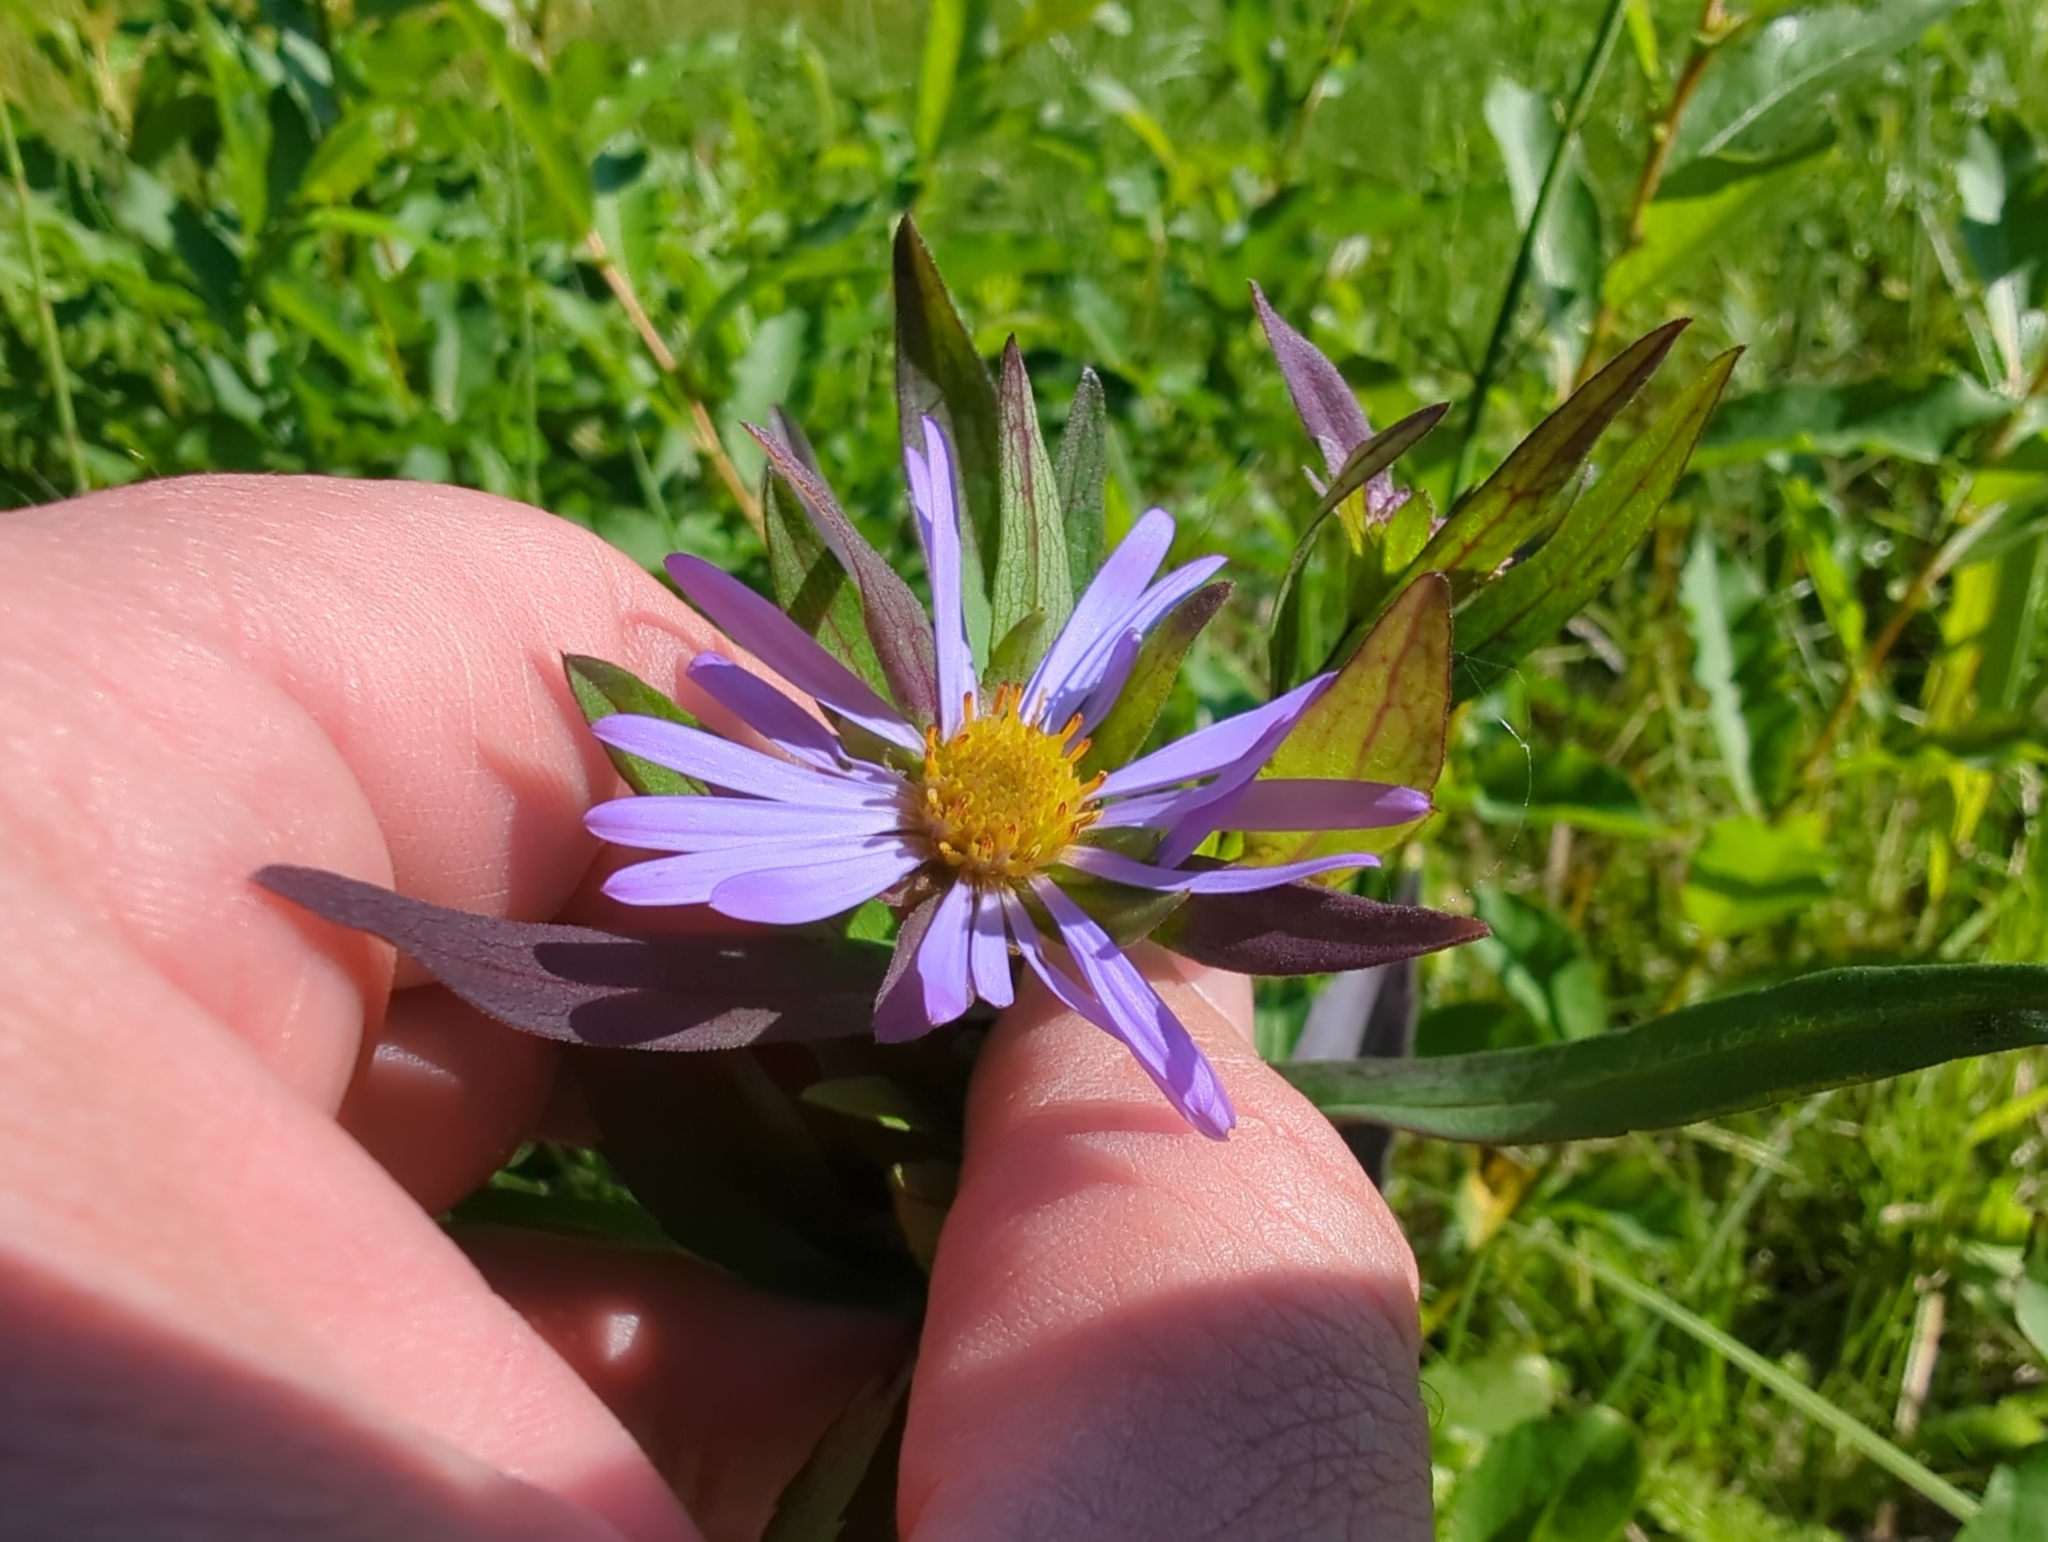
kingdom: Plantae
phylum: Tracheophyta
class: Magnoliopsida
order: Asterales
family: Asteraceae
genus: Symphyotrichum
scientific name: Symphyotrichum subspicatum
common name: Douglas' aster
